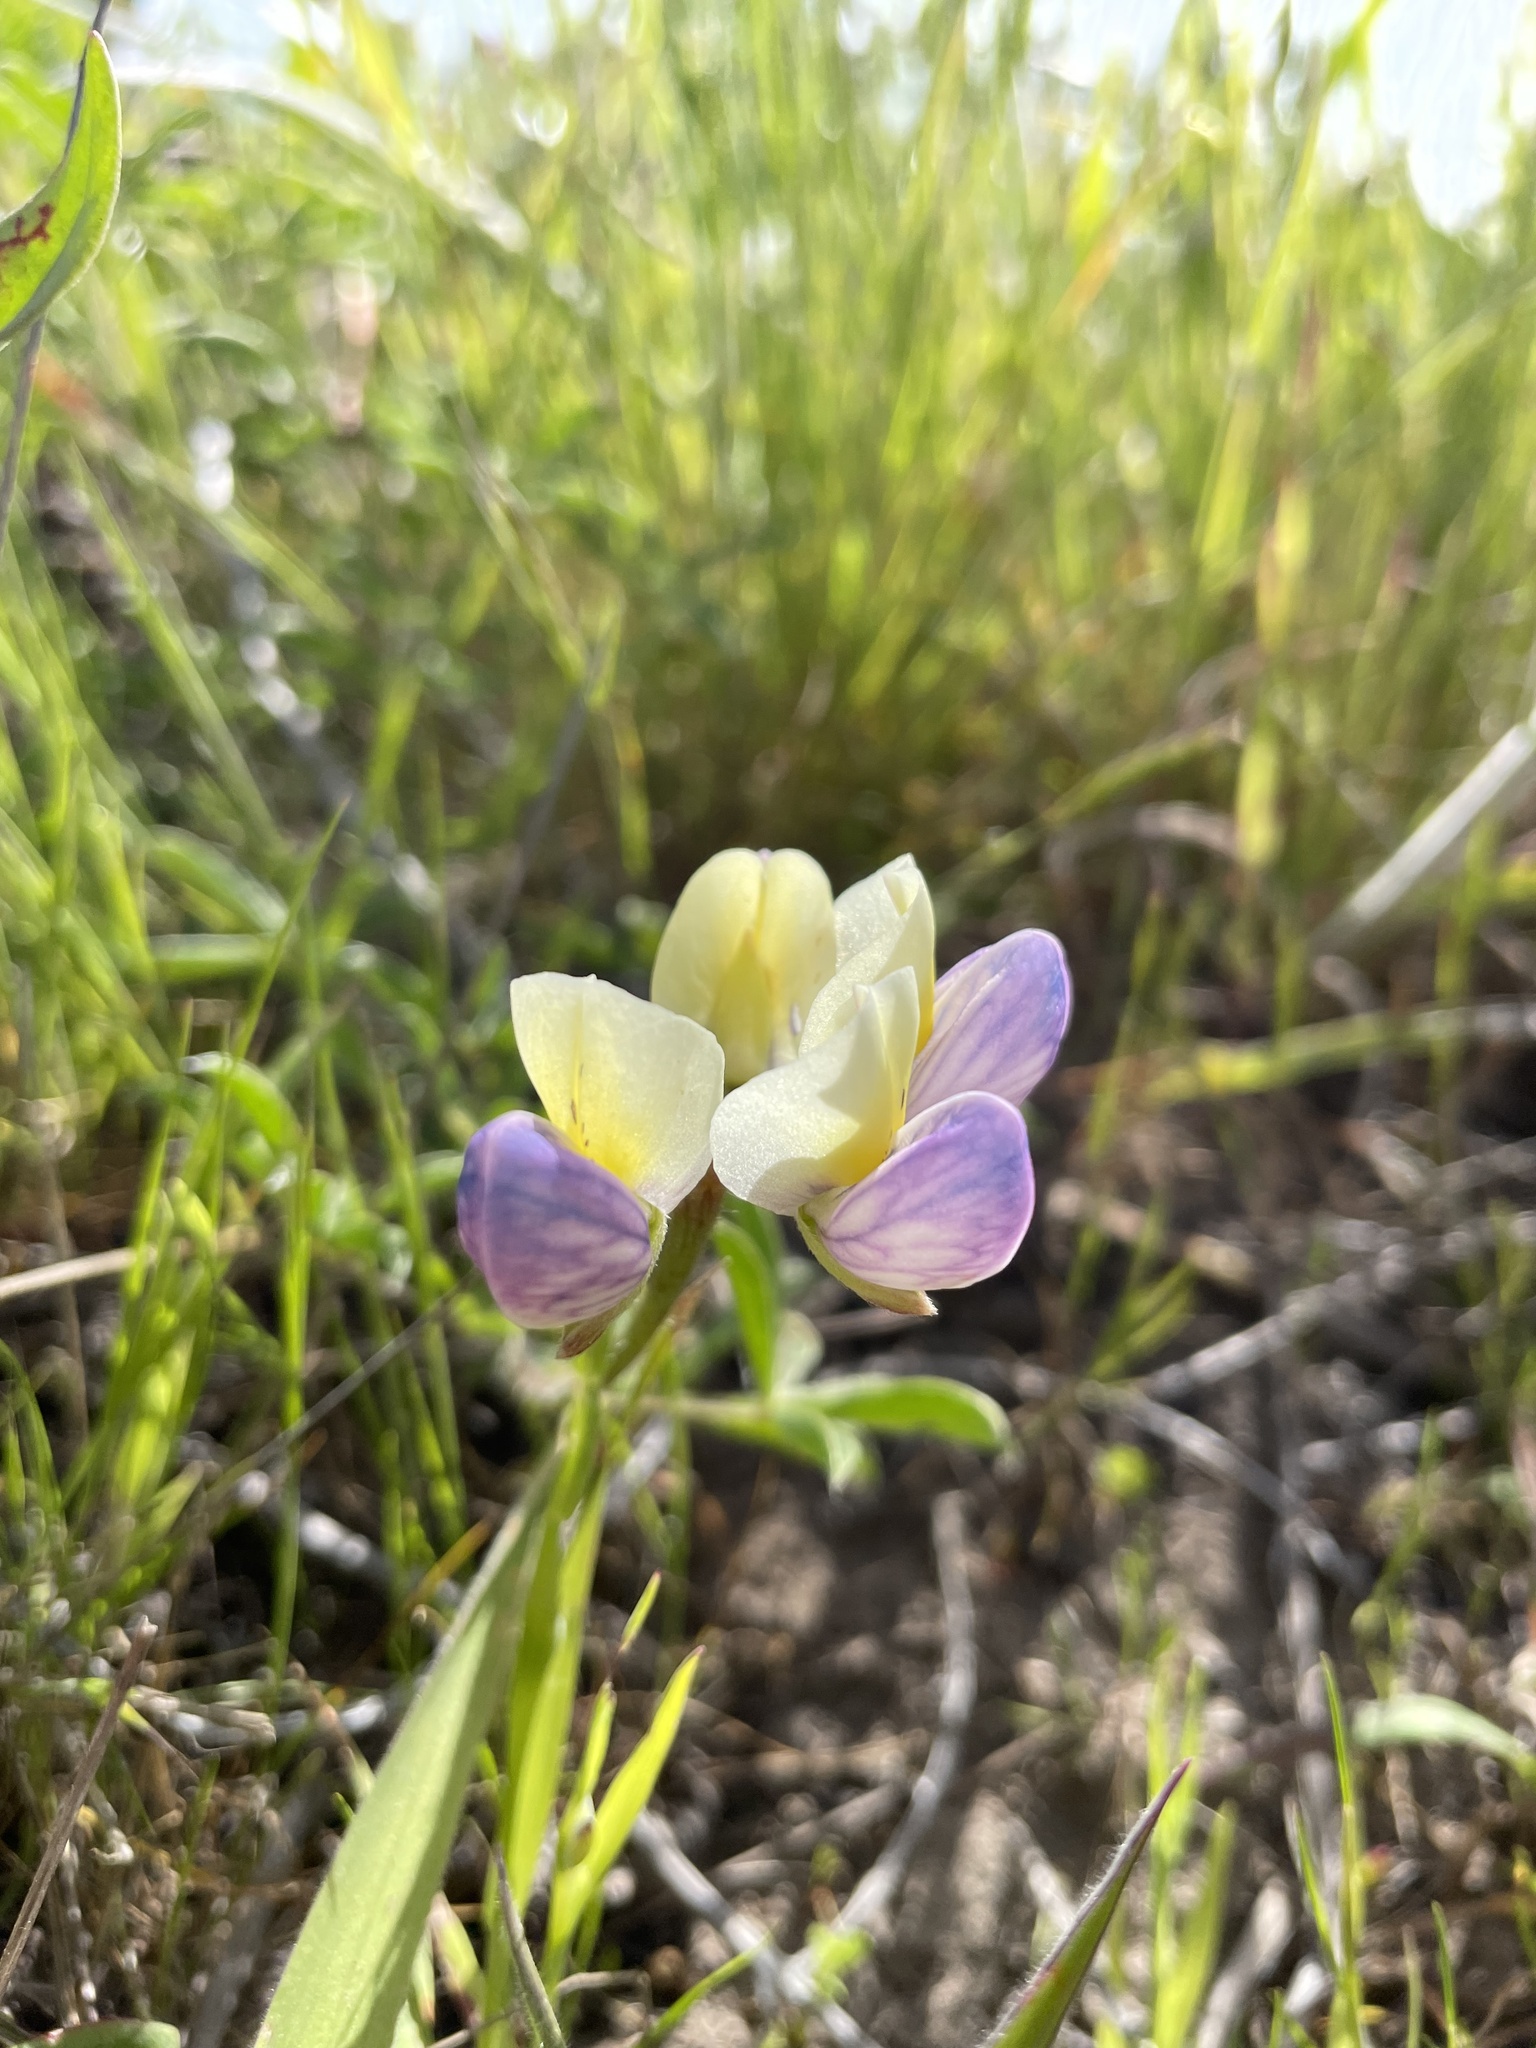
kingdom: Plantae
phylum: Tracheophyta
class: Magnoliopsida
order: Fabales
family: Fabaceae
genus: Lupinus
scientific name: Lupinus variicolor
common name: Lindley's varied lupine
